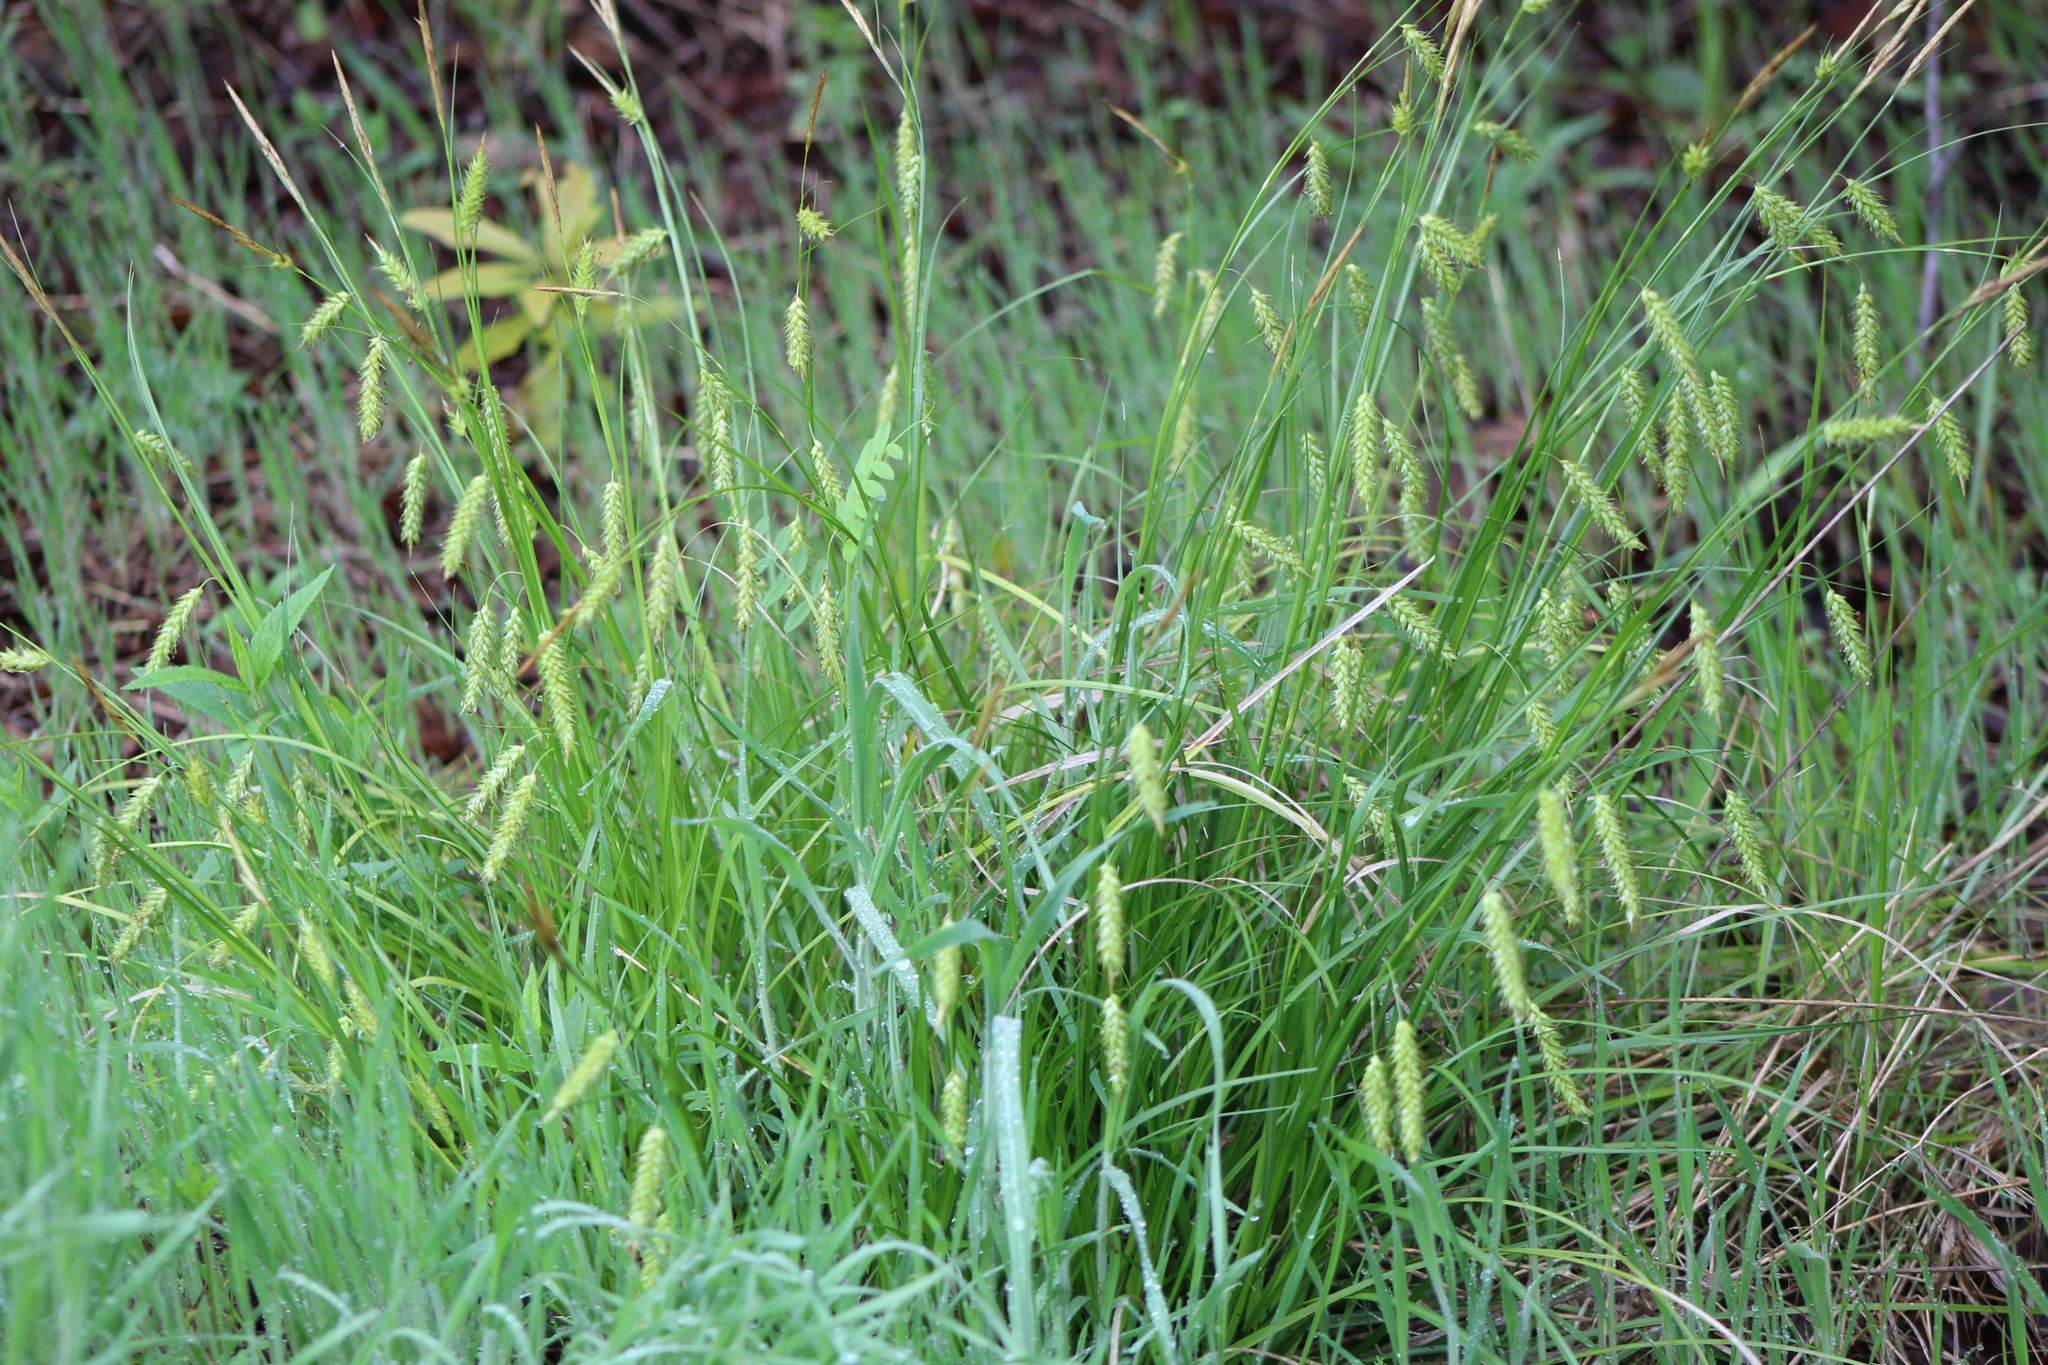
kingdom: Plantae
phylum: Tracheophyta
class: Liliopsida
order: Poales
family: Cyperaceae
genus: Carex
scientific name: Carex cherokeensis
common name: Cherokee sedge
